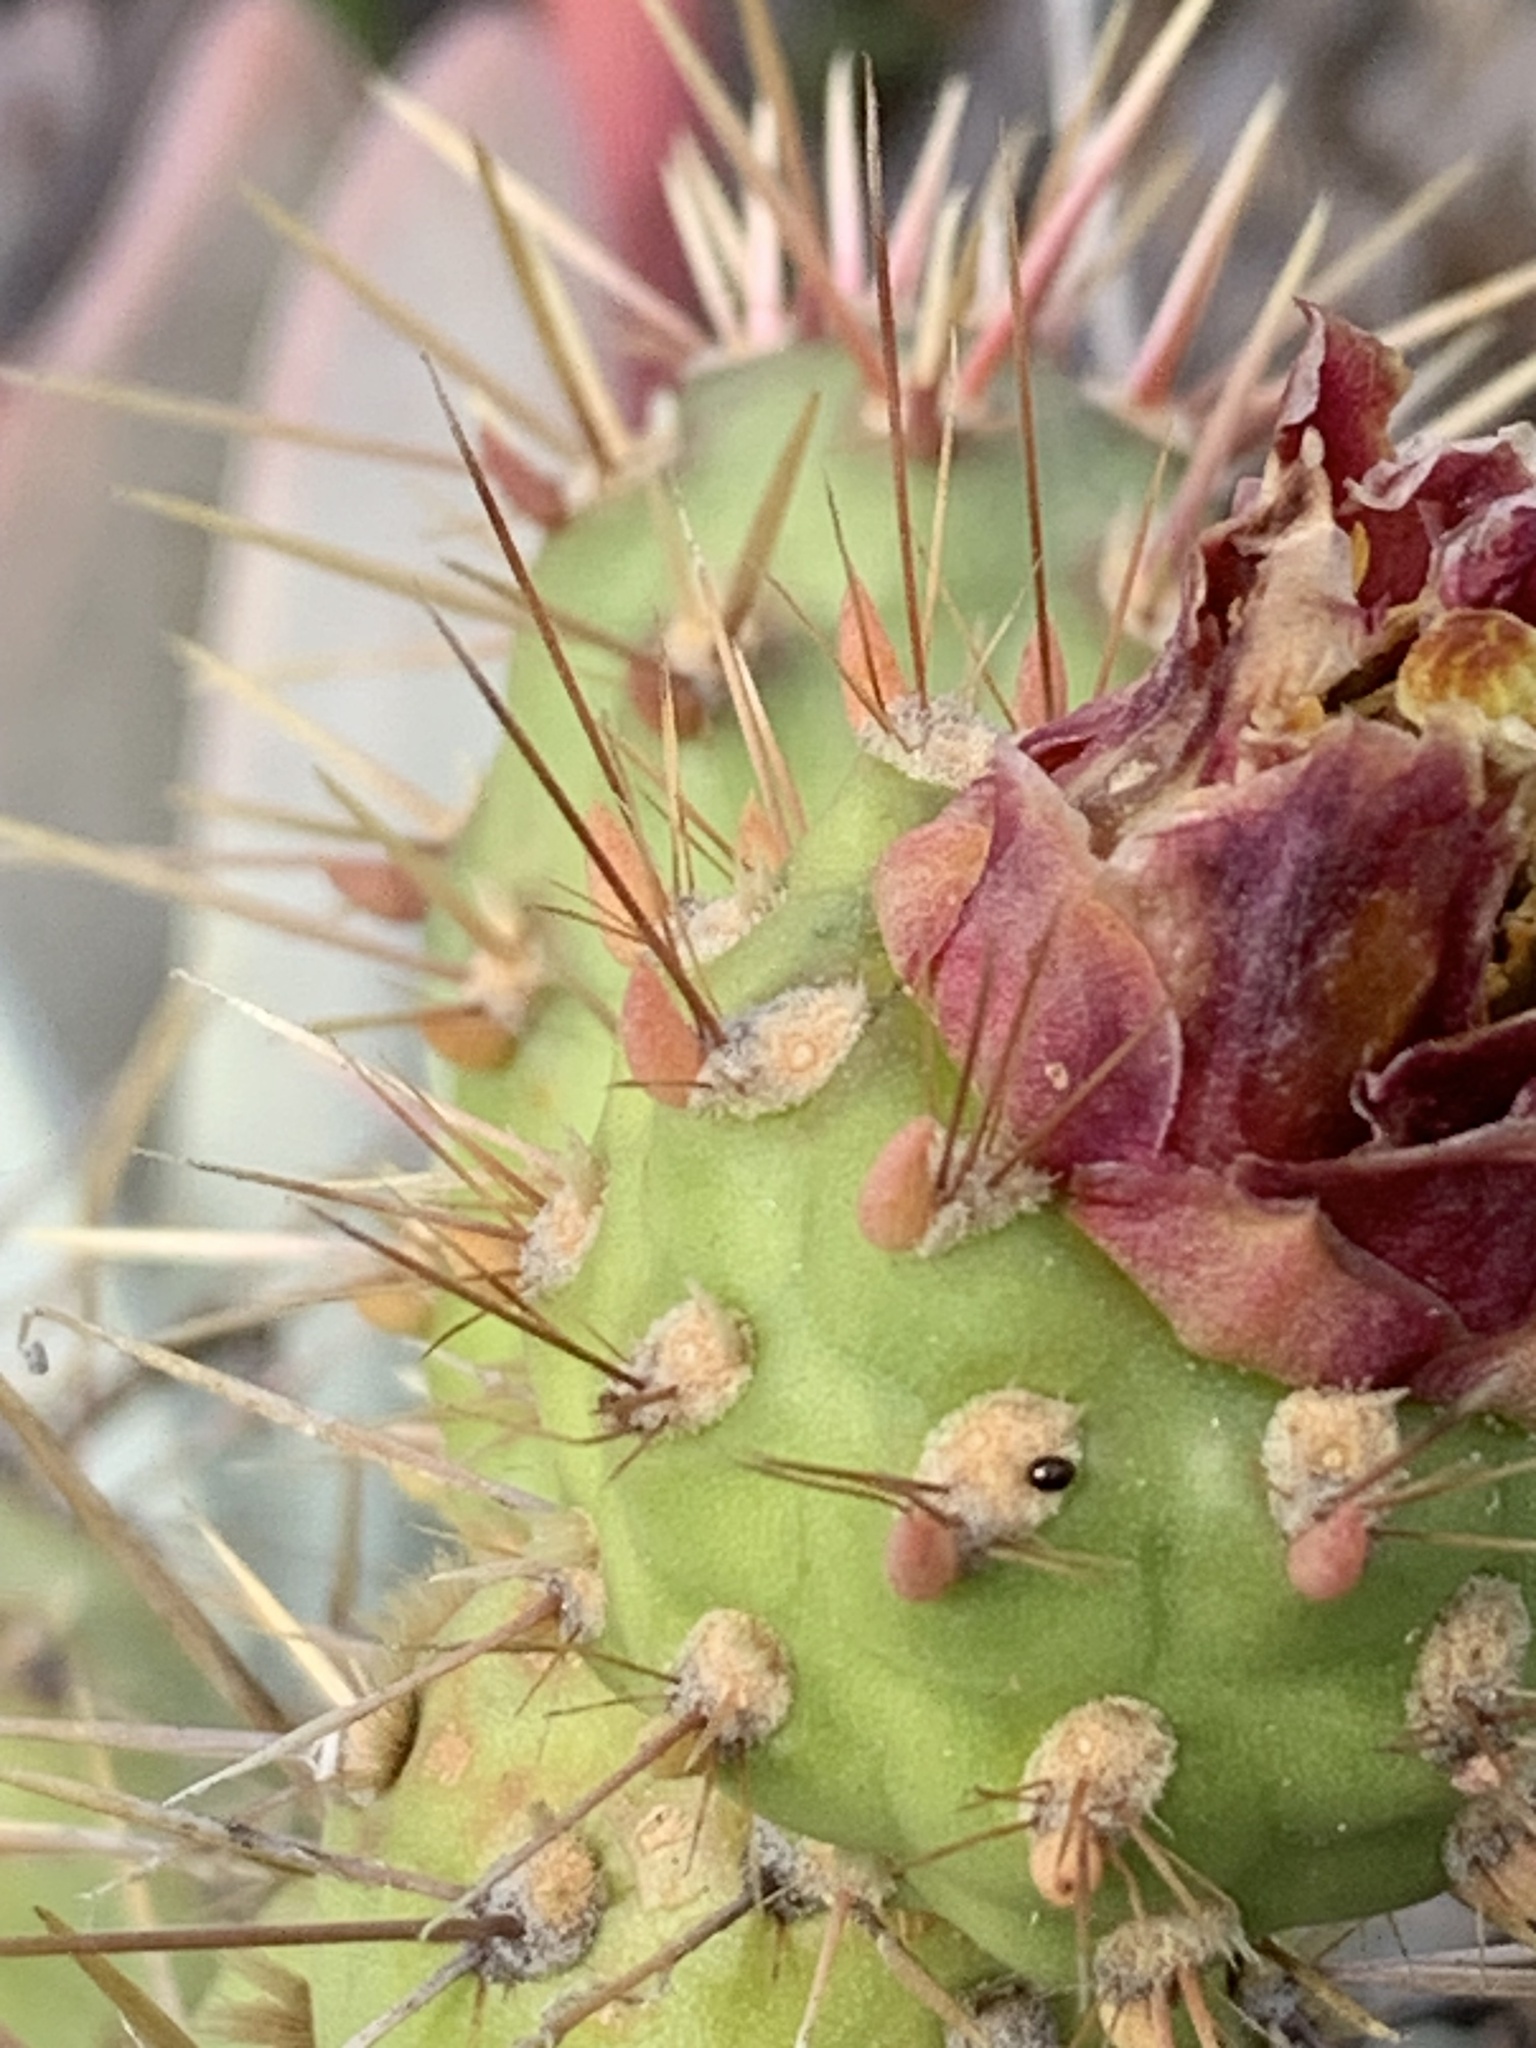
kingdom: Plantae
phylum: Tracheophyta
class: Magnoliopsida
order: Caryophyllales
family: Cactaceae
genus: Cylindropuntia
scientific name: Cylindropuntia prolifera
